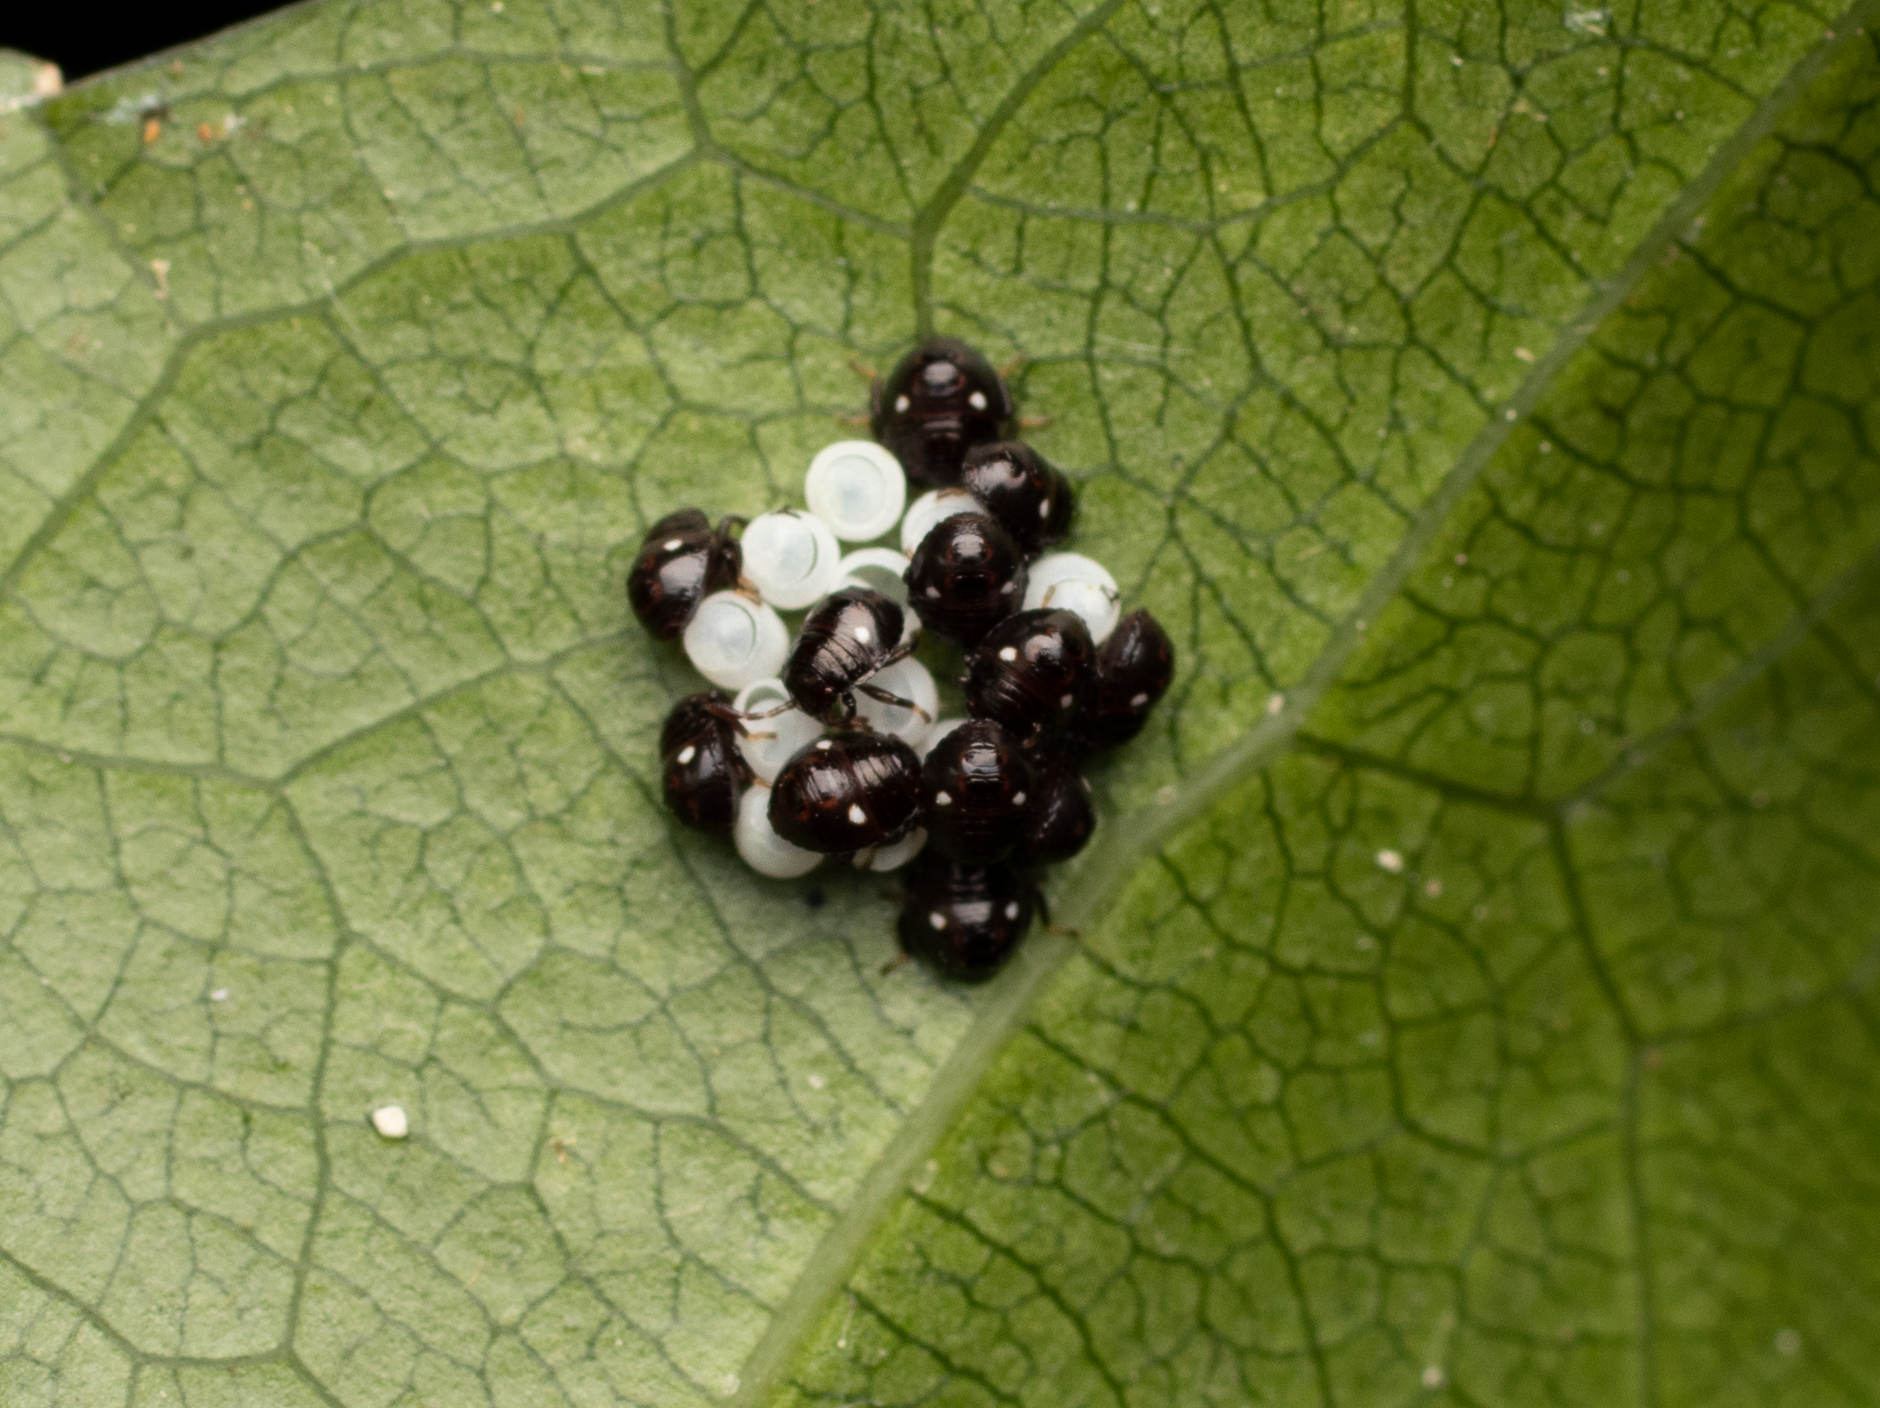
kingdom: Animalia
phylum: Arthropoda
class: Insecta
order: Hemiptera
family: Pentatomidae
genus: Monteithiella
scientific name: Monteithiella
